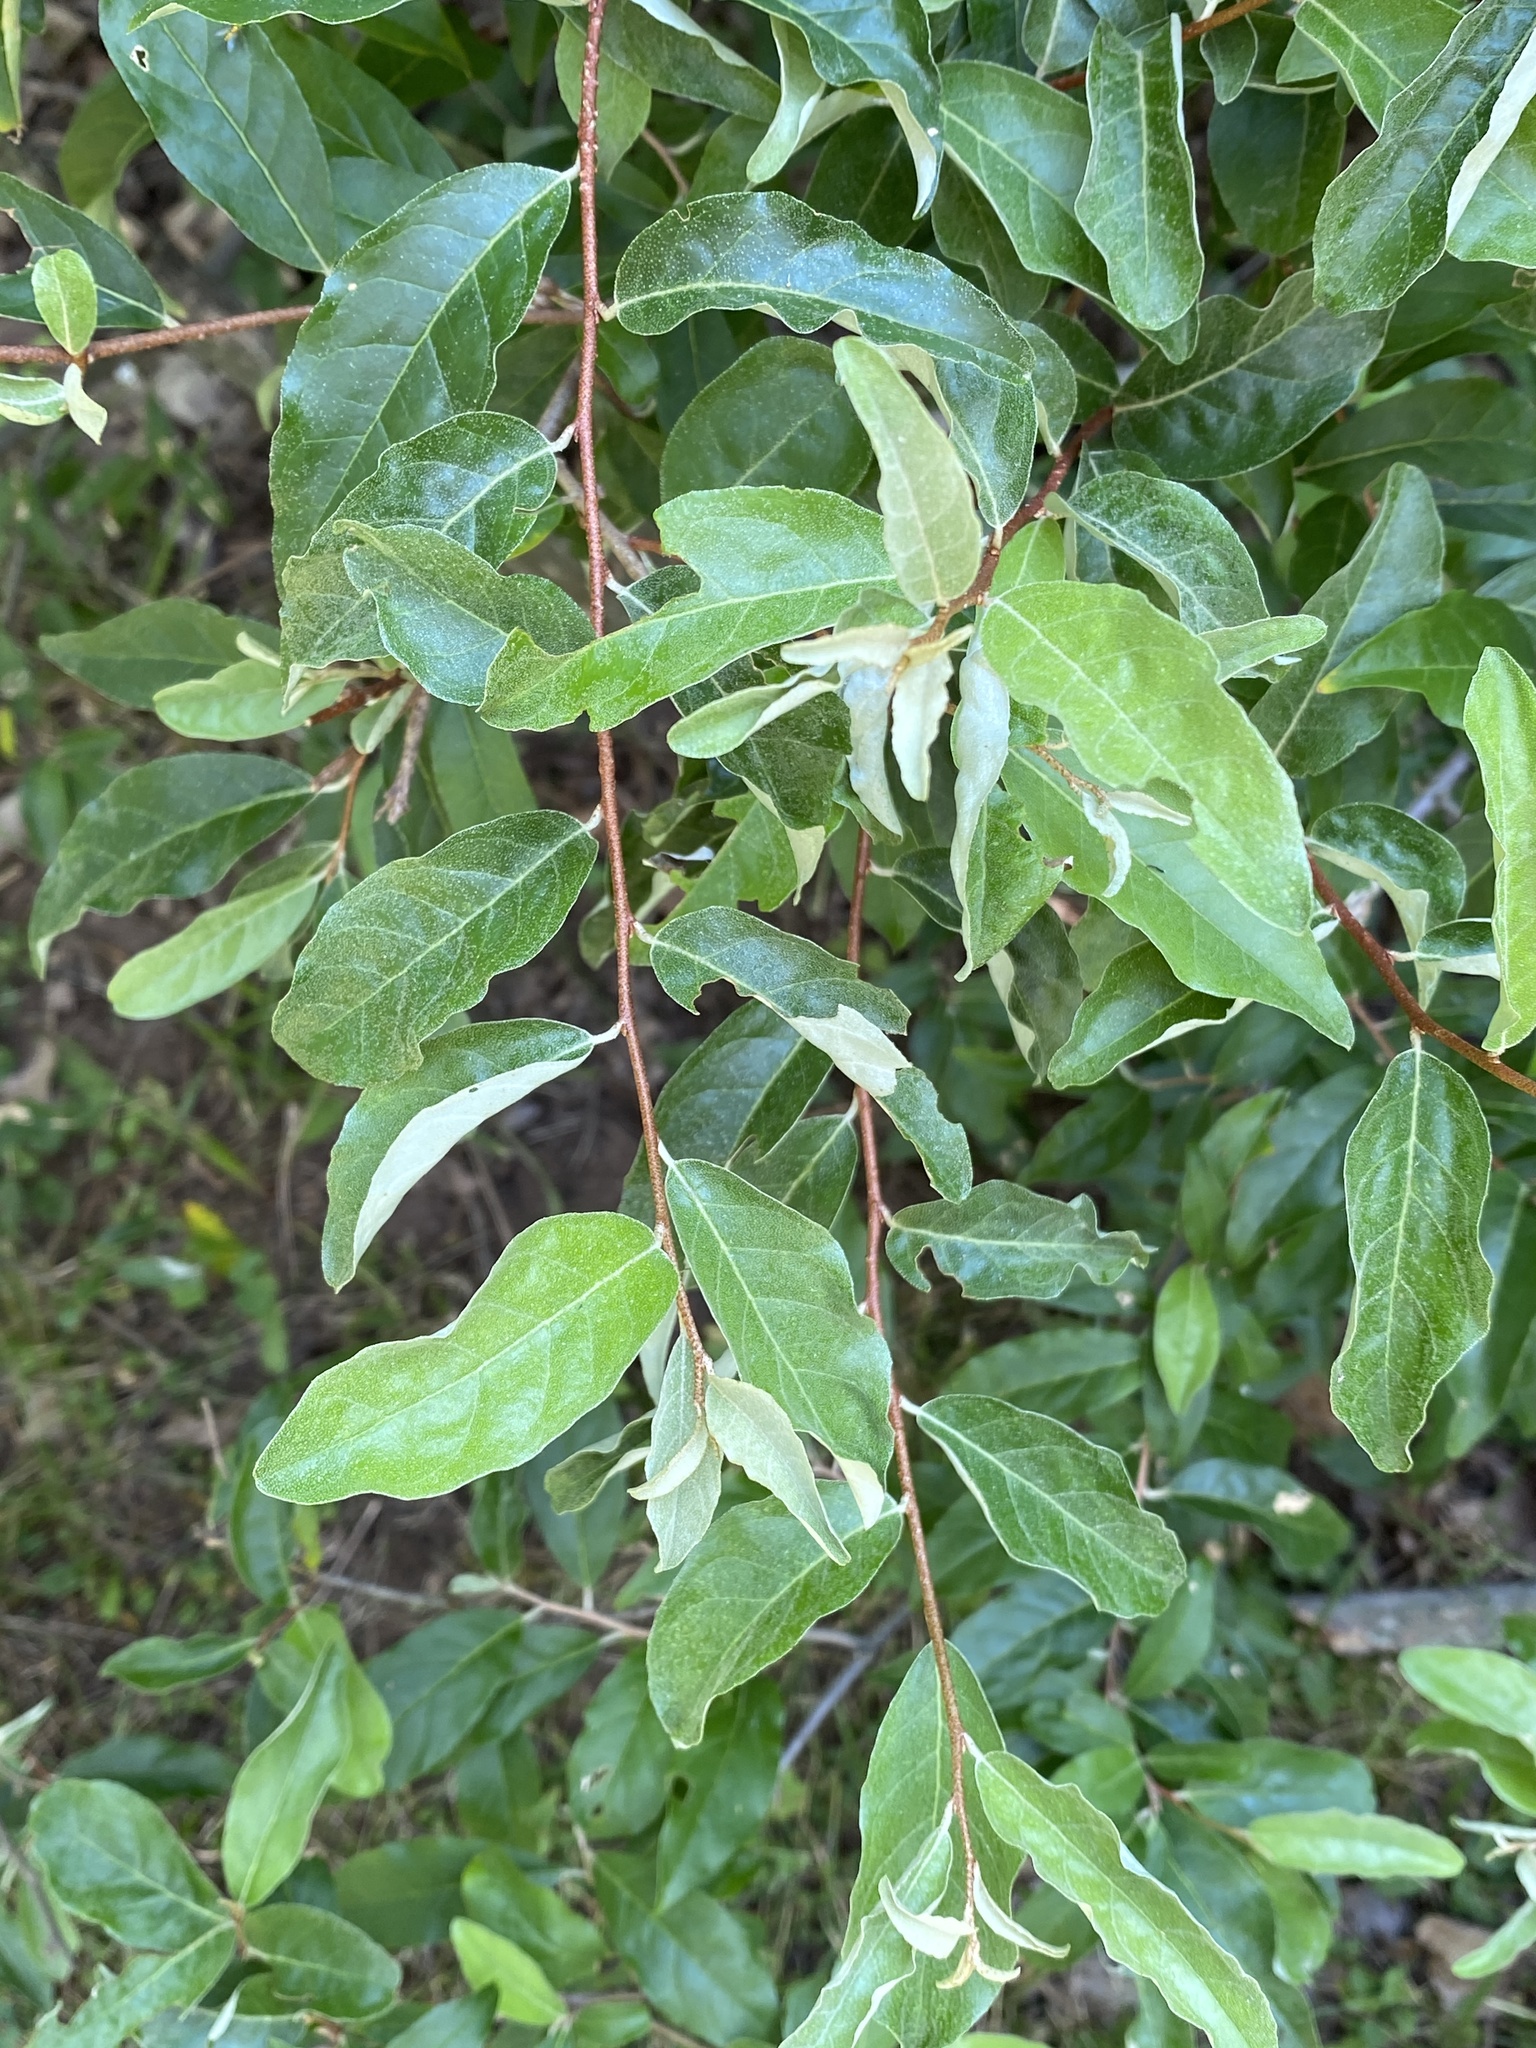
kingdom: Plantae
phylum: Tracheophyta
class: Magnoliopsida
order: Rosales
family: Elaeagnaceae
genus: Elaeagnus
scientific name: Elaeagnus umbellata
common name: Autumn olive
